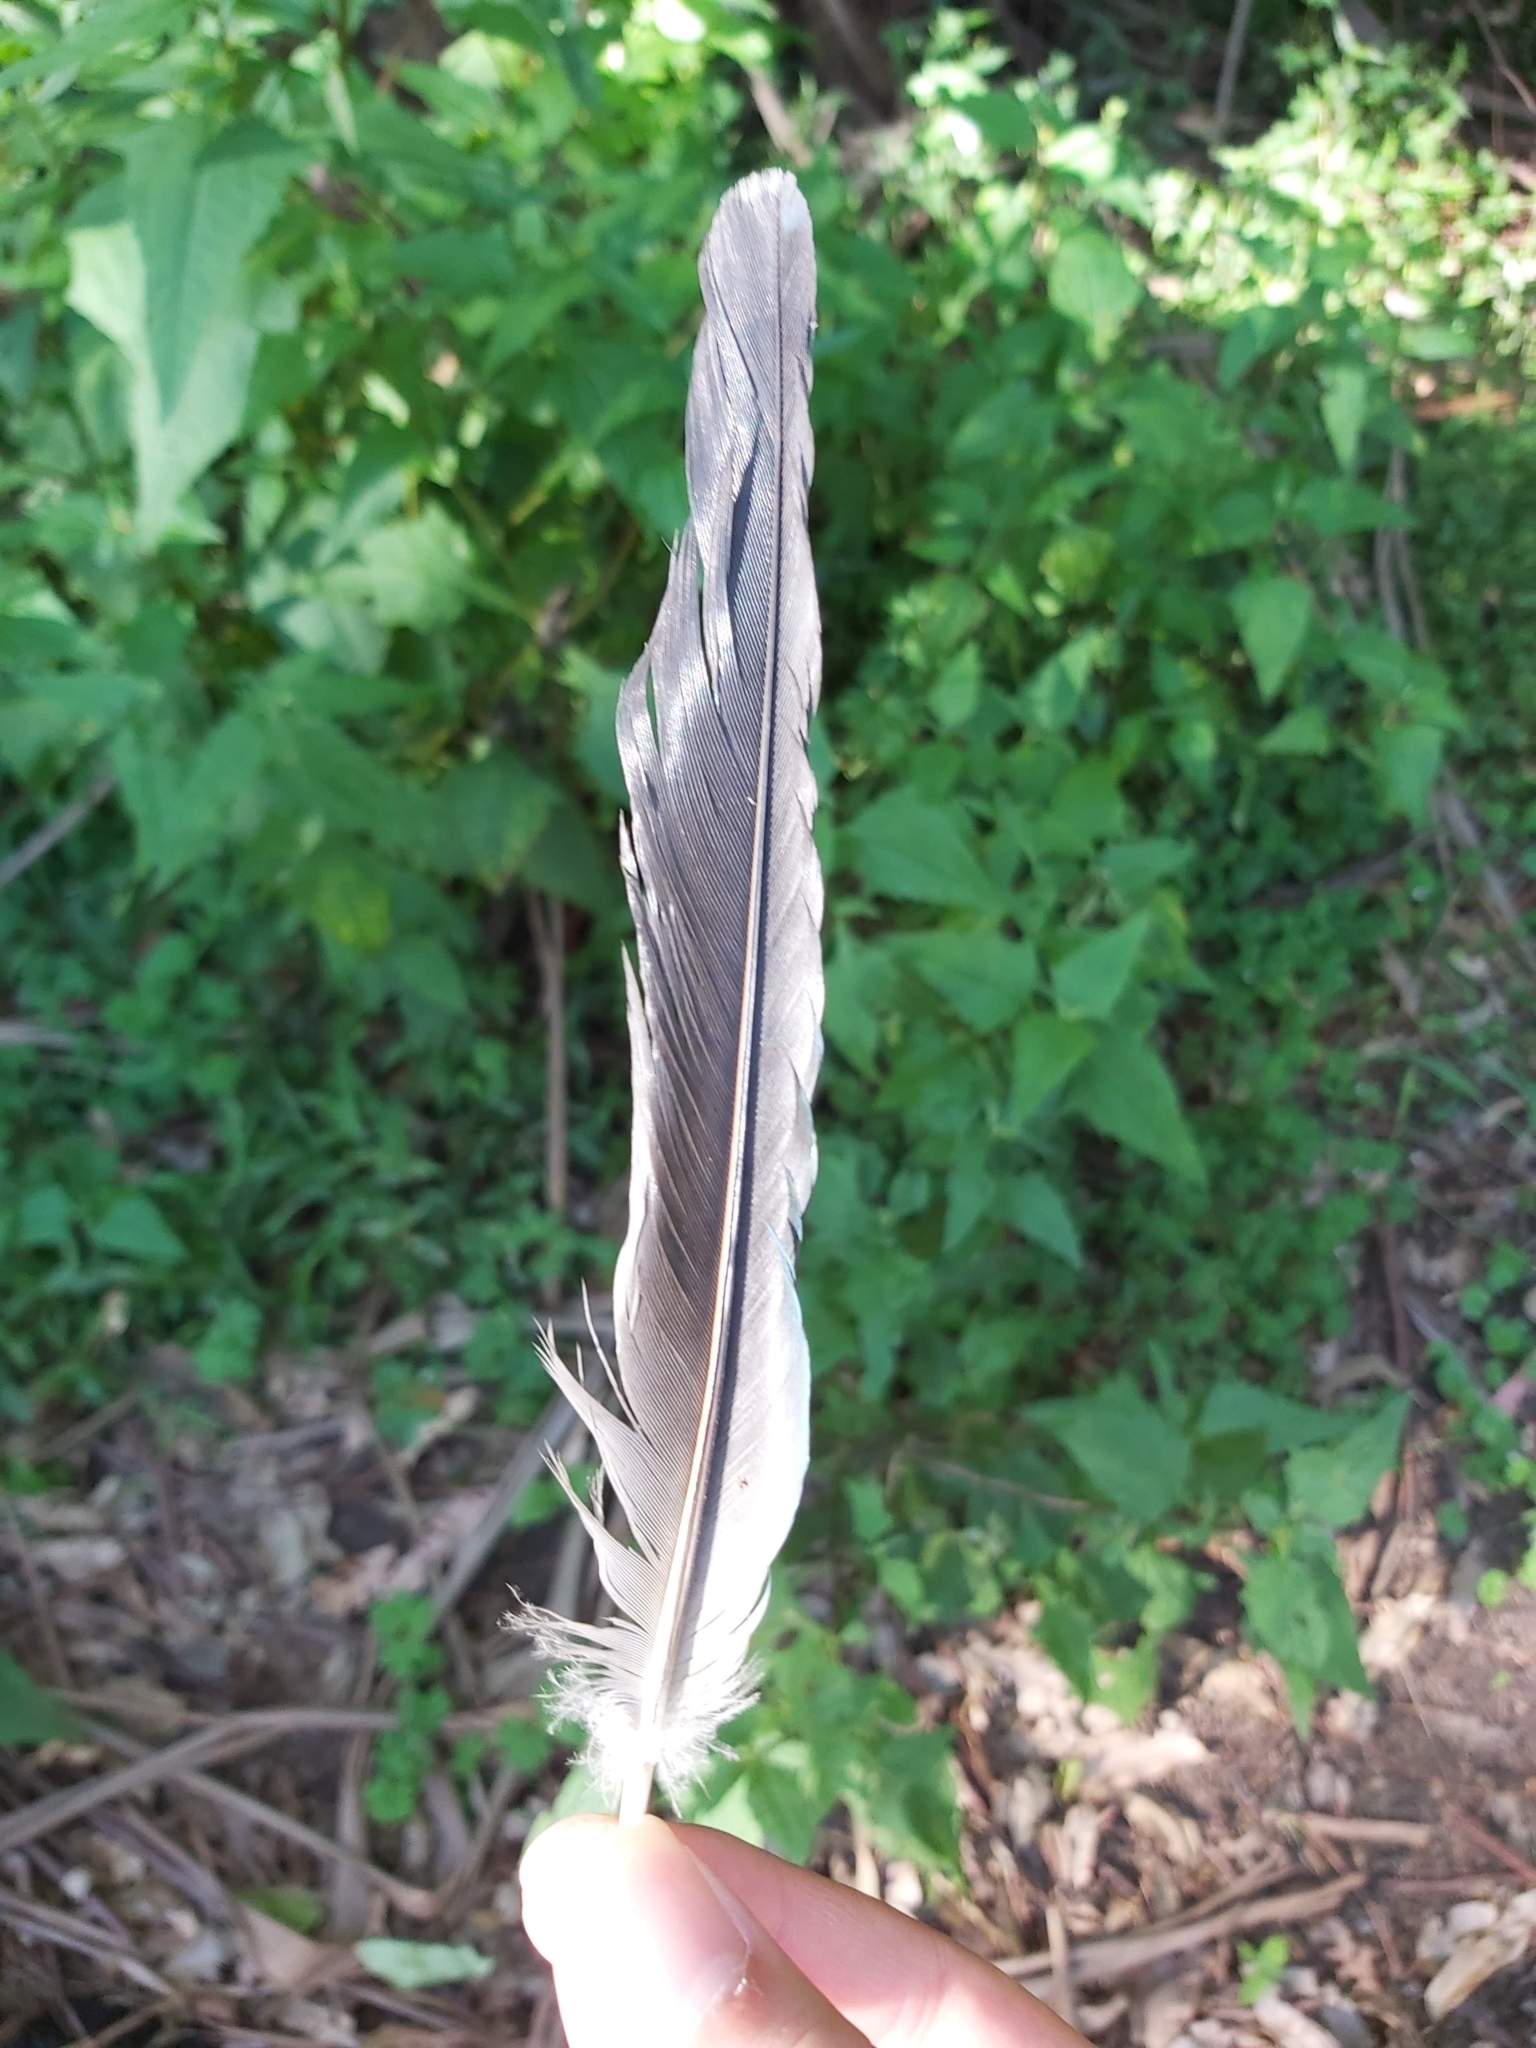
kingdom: Animalia
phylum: Chordata
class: Aves
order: Psittaciformes
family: Psittacidae
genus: Platycercus
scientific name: Platycercus eximius
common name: Eastern rosella
